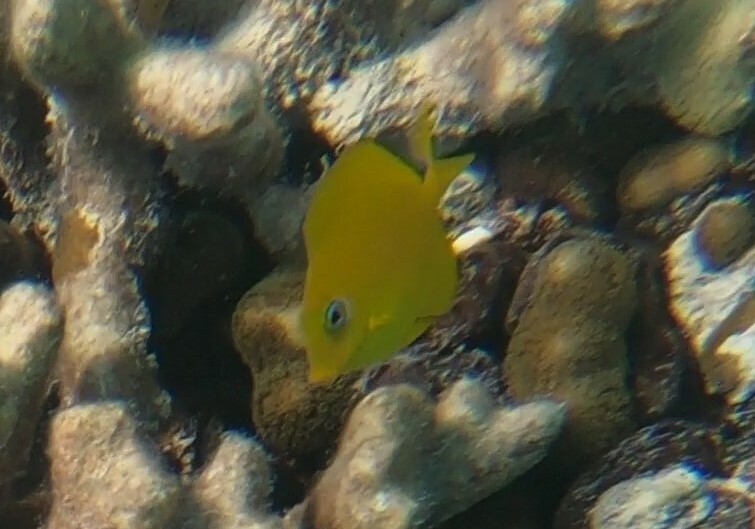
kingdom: Animalia
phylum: Chordata
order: Perciformes
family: Acanthuridae
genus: Acanthurus
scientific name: Acanthurus coeruleus
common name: Blue tang
